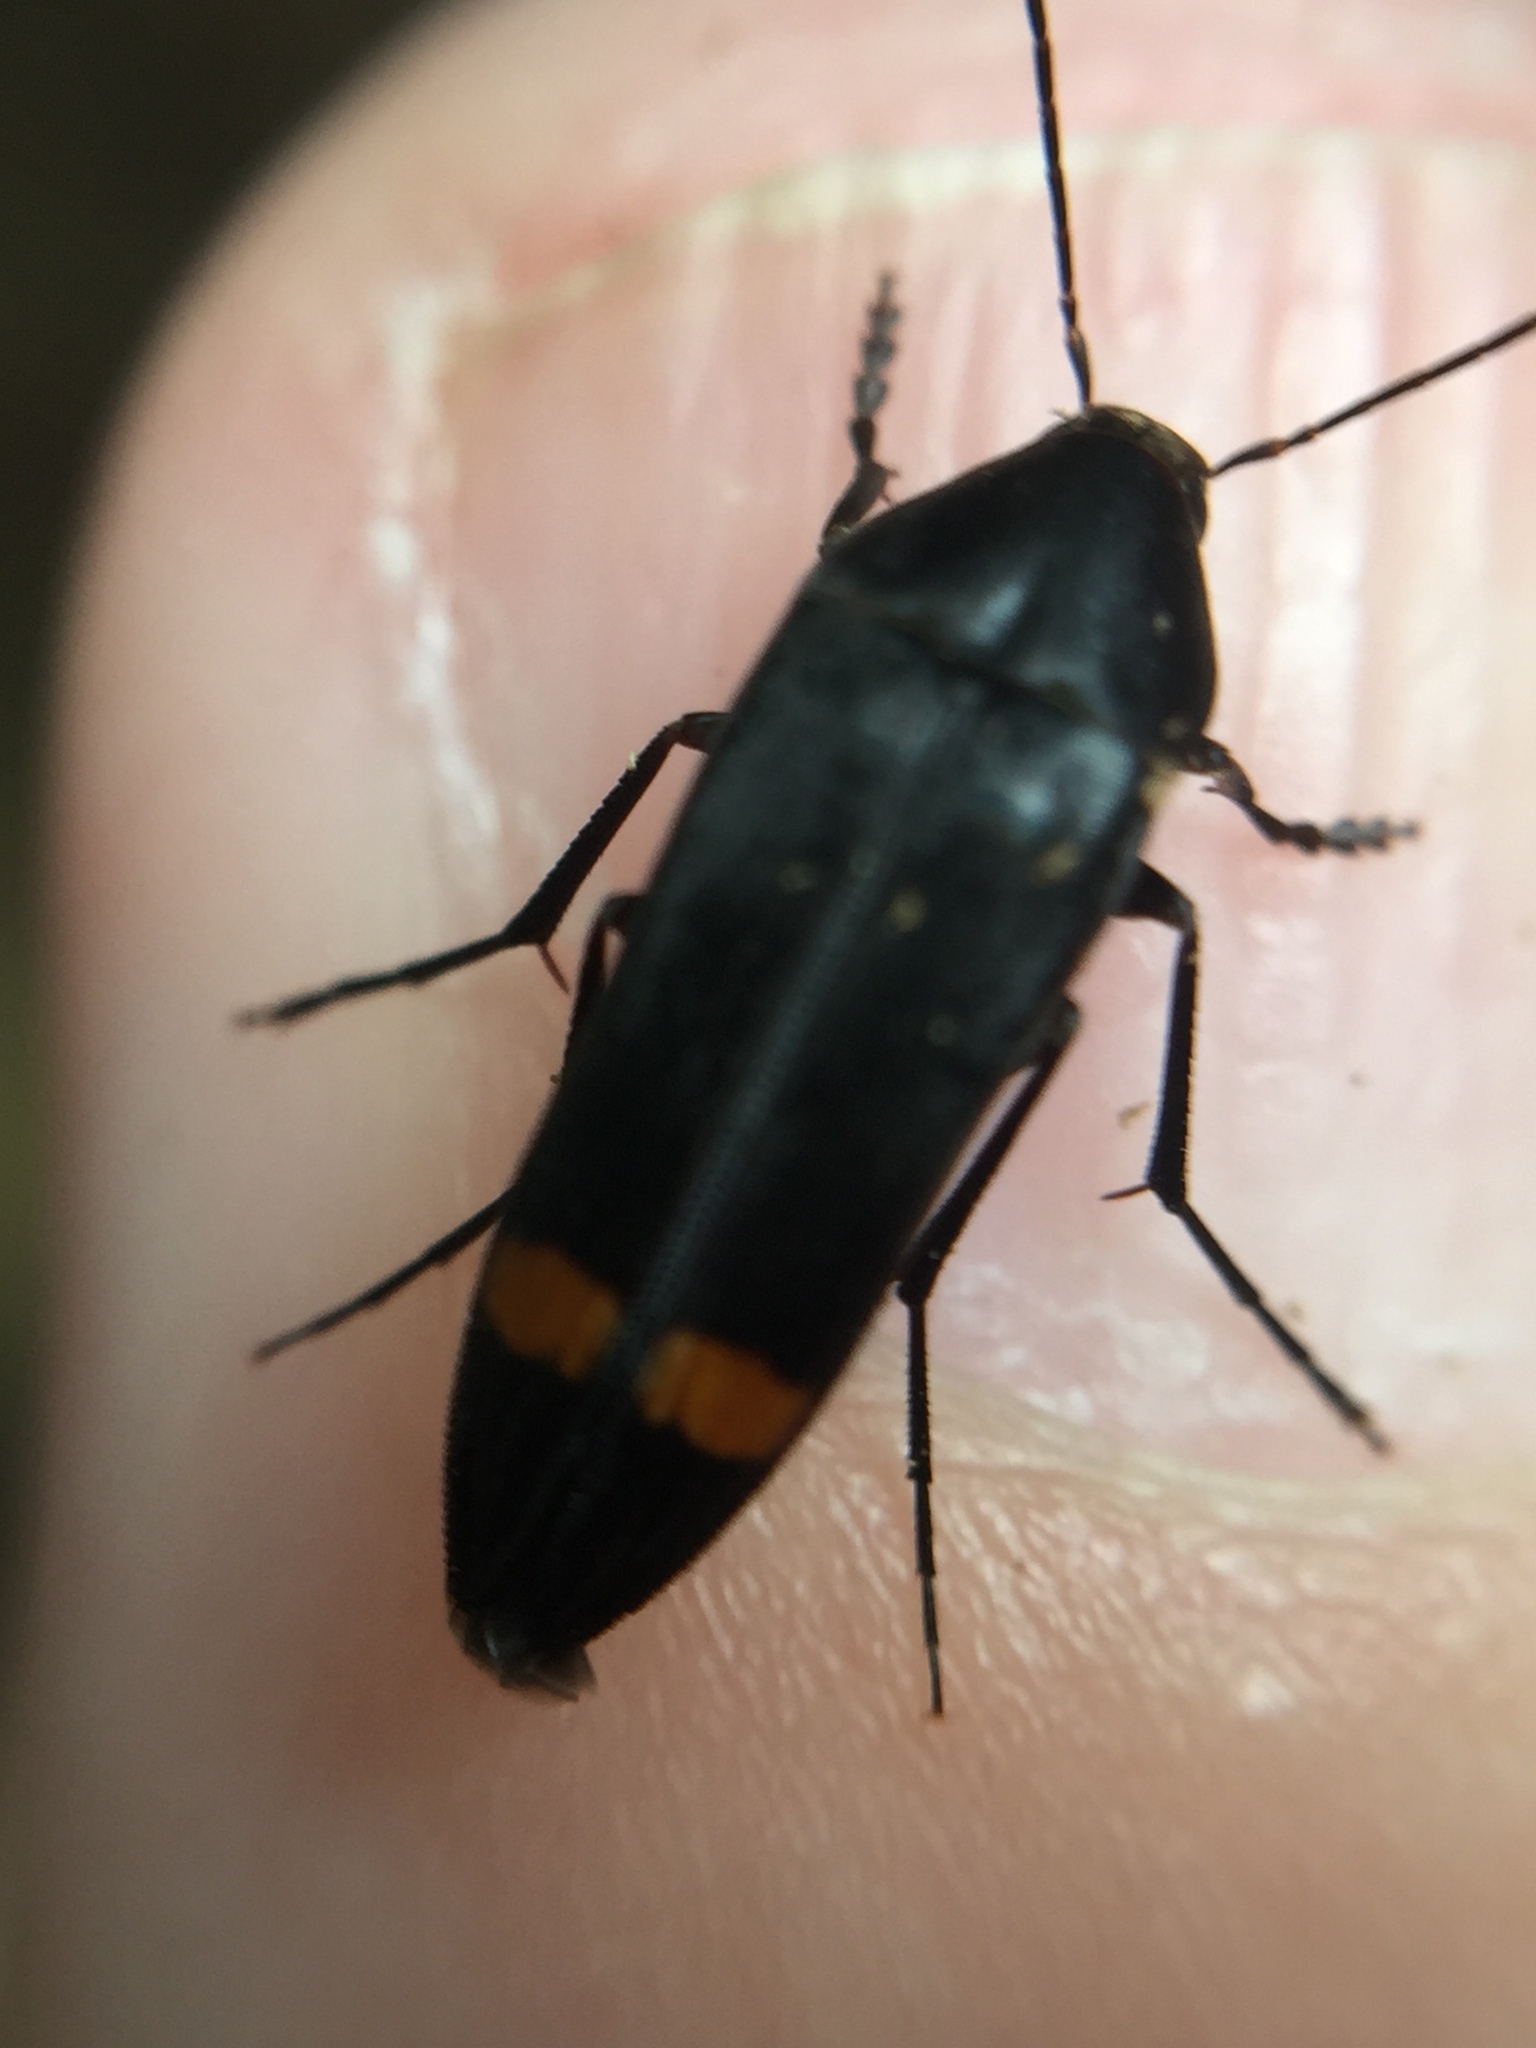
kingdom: Animalia
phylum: Arthropoda
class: Insecta
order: Coleoptera
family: Melandryidae
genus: Ctenoplectron
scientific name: Ctenoplectron
